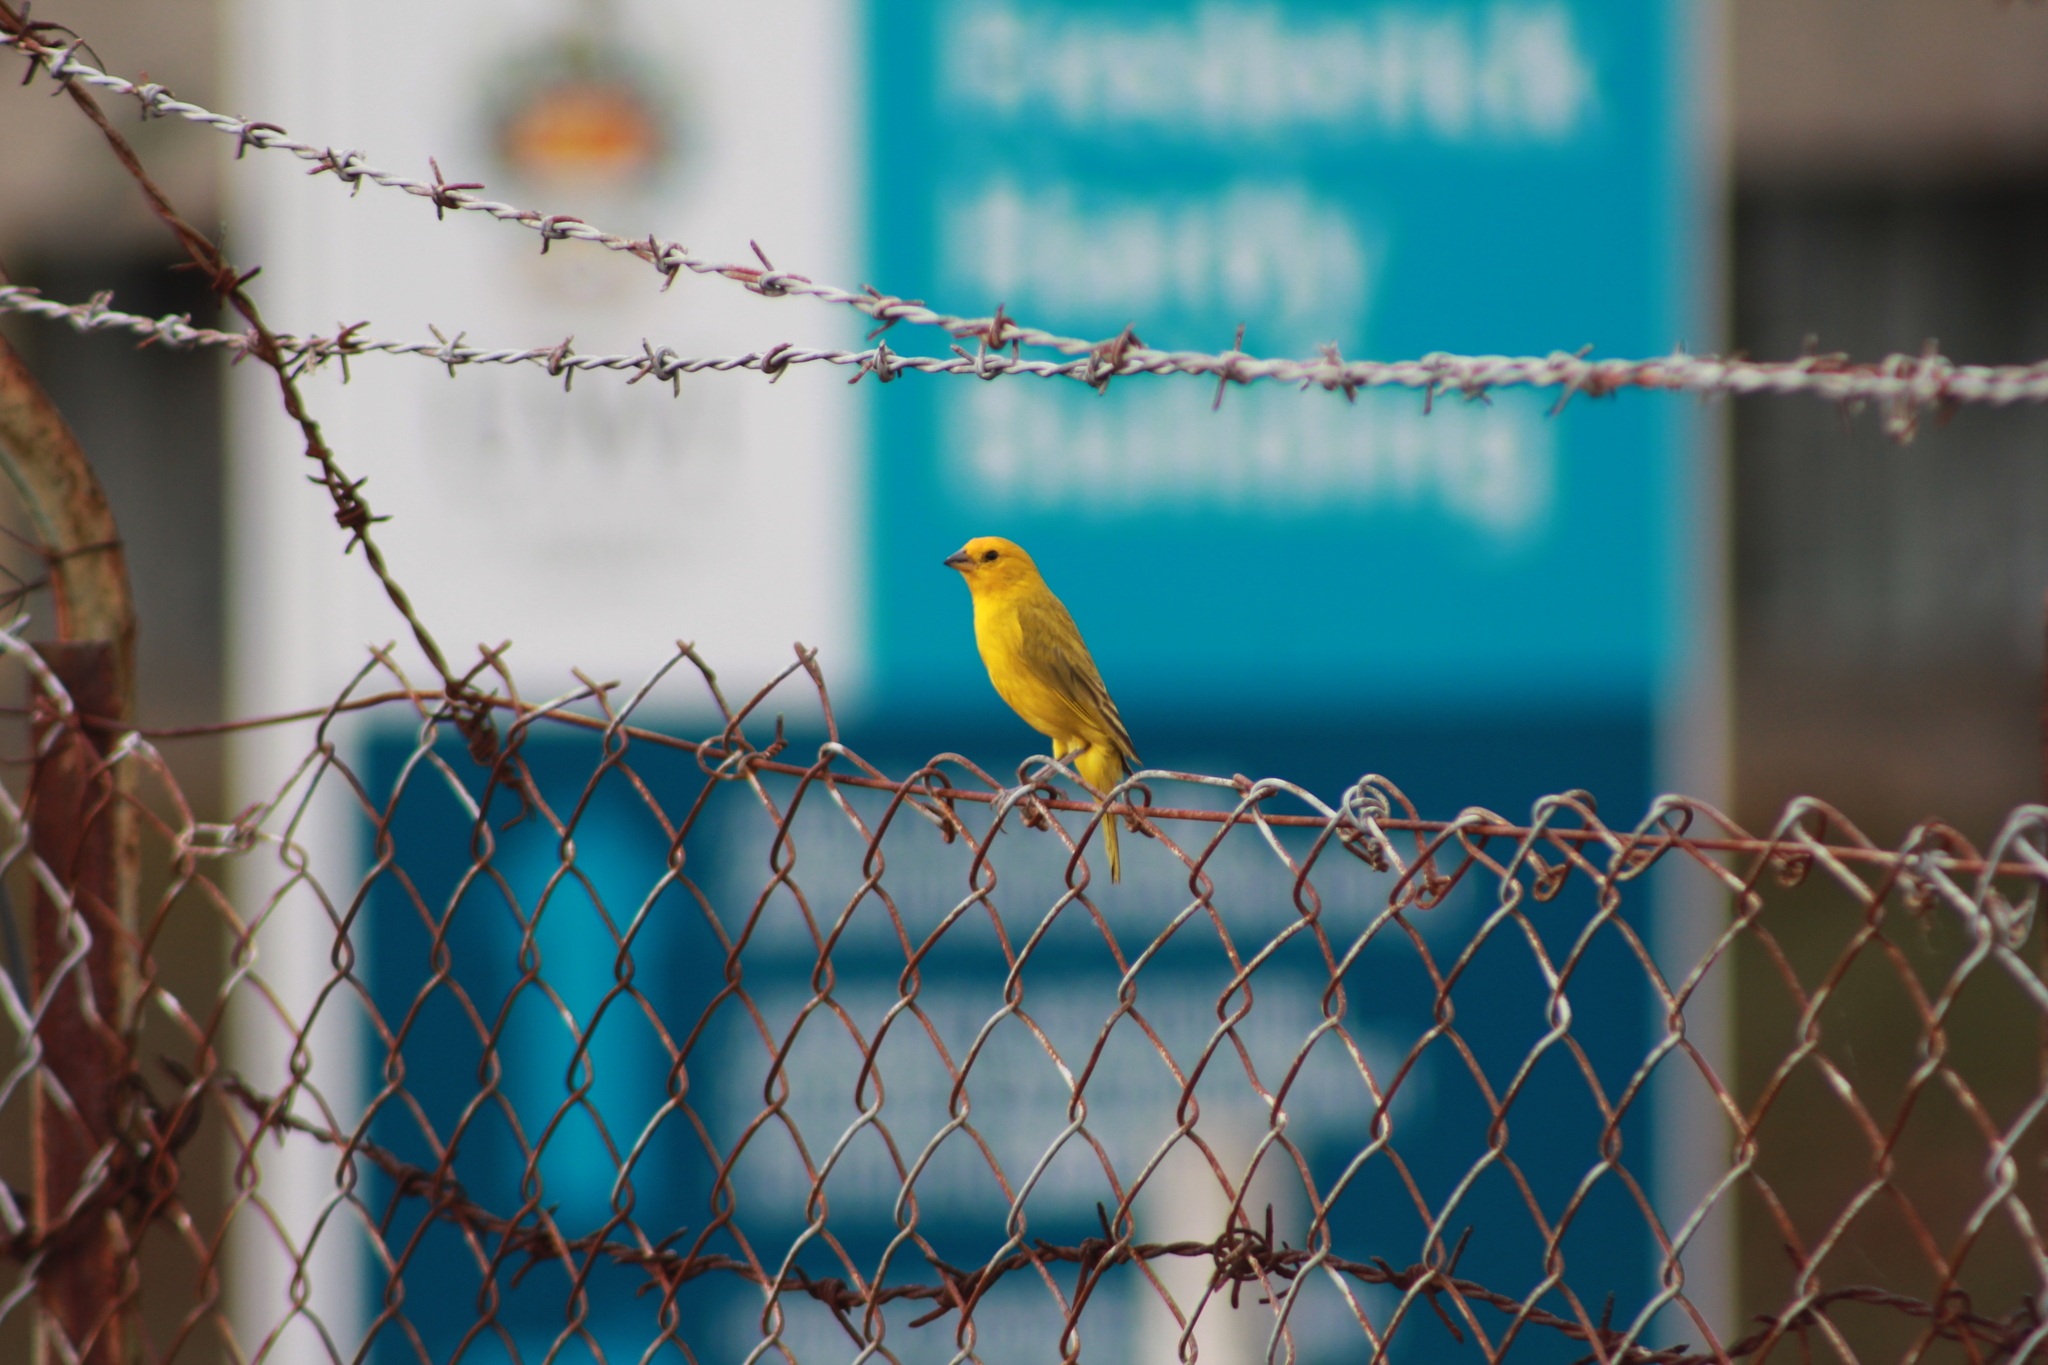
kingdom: Animalia
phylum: Chordata
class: Aves
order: Passeriformes
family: Thraupidae
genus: Sicalis
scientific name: Sicalis flaveola
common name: Saffron finch
